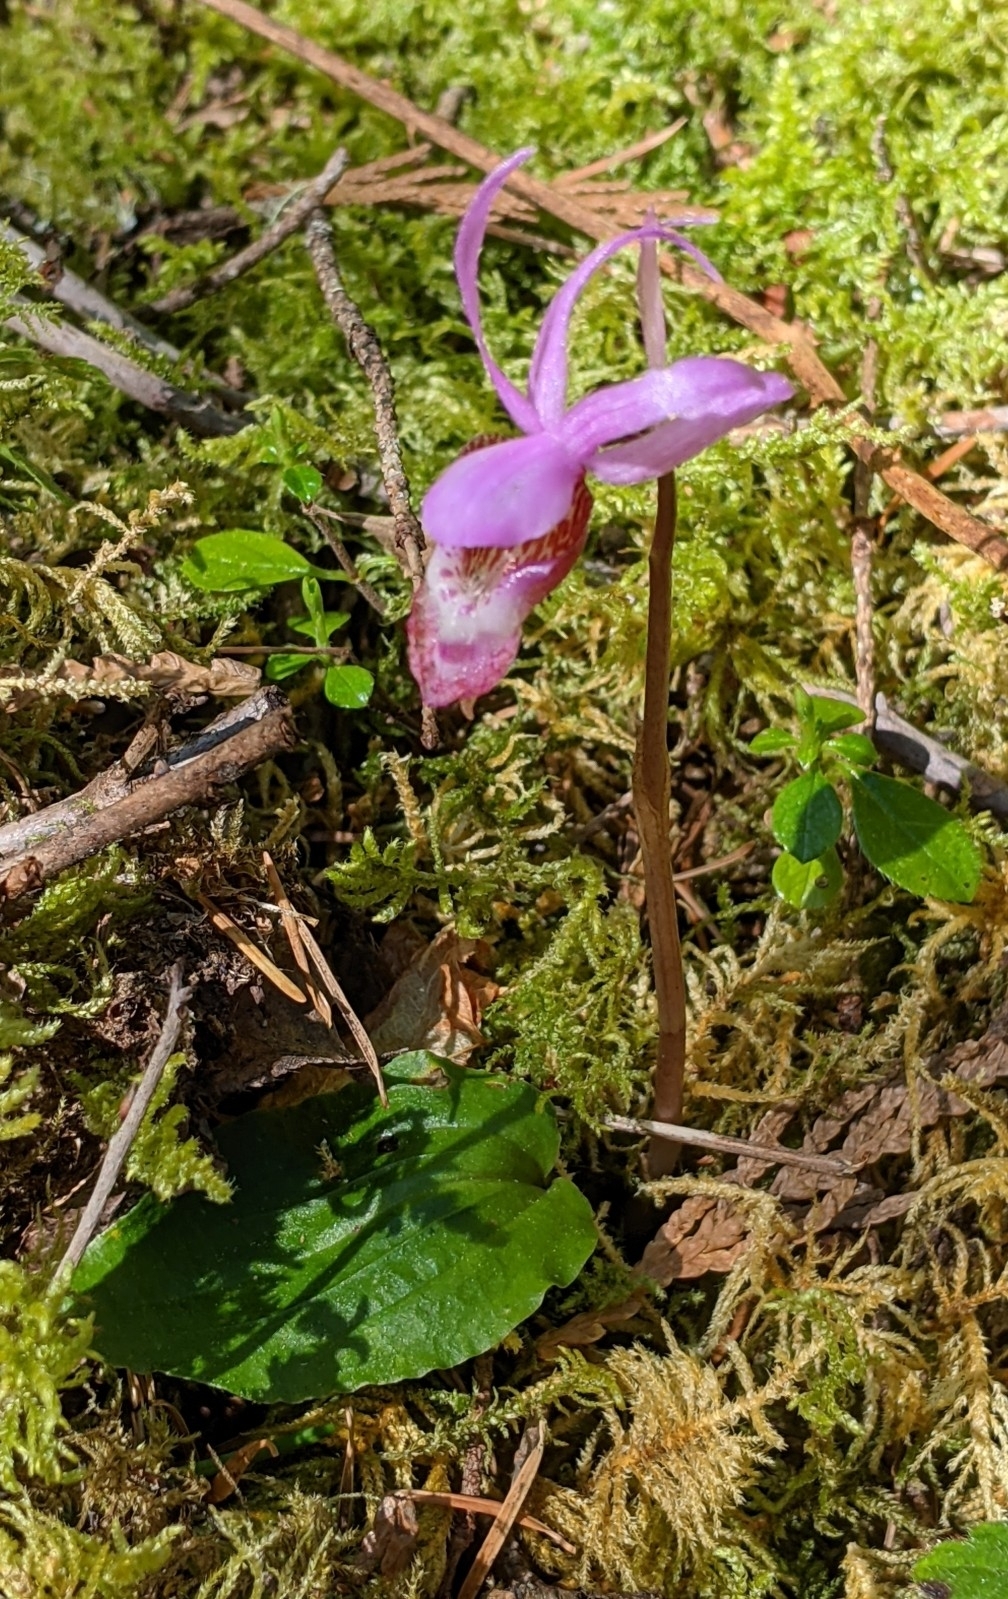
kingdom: Plantae
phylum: Tracheophyta
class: Liliopsida
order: Asparagales
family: Orchidaceae
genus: Calypso
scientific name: Calypso bulbosa
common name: Calypso
